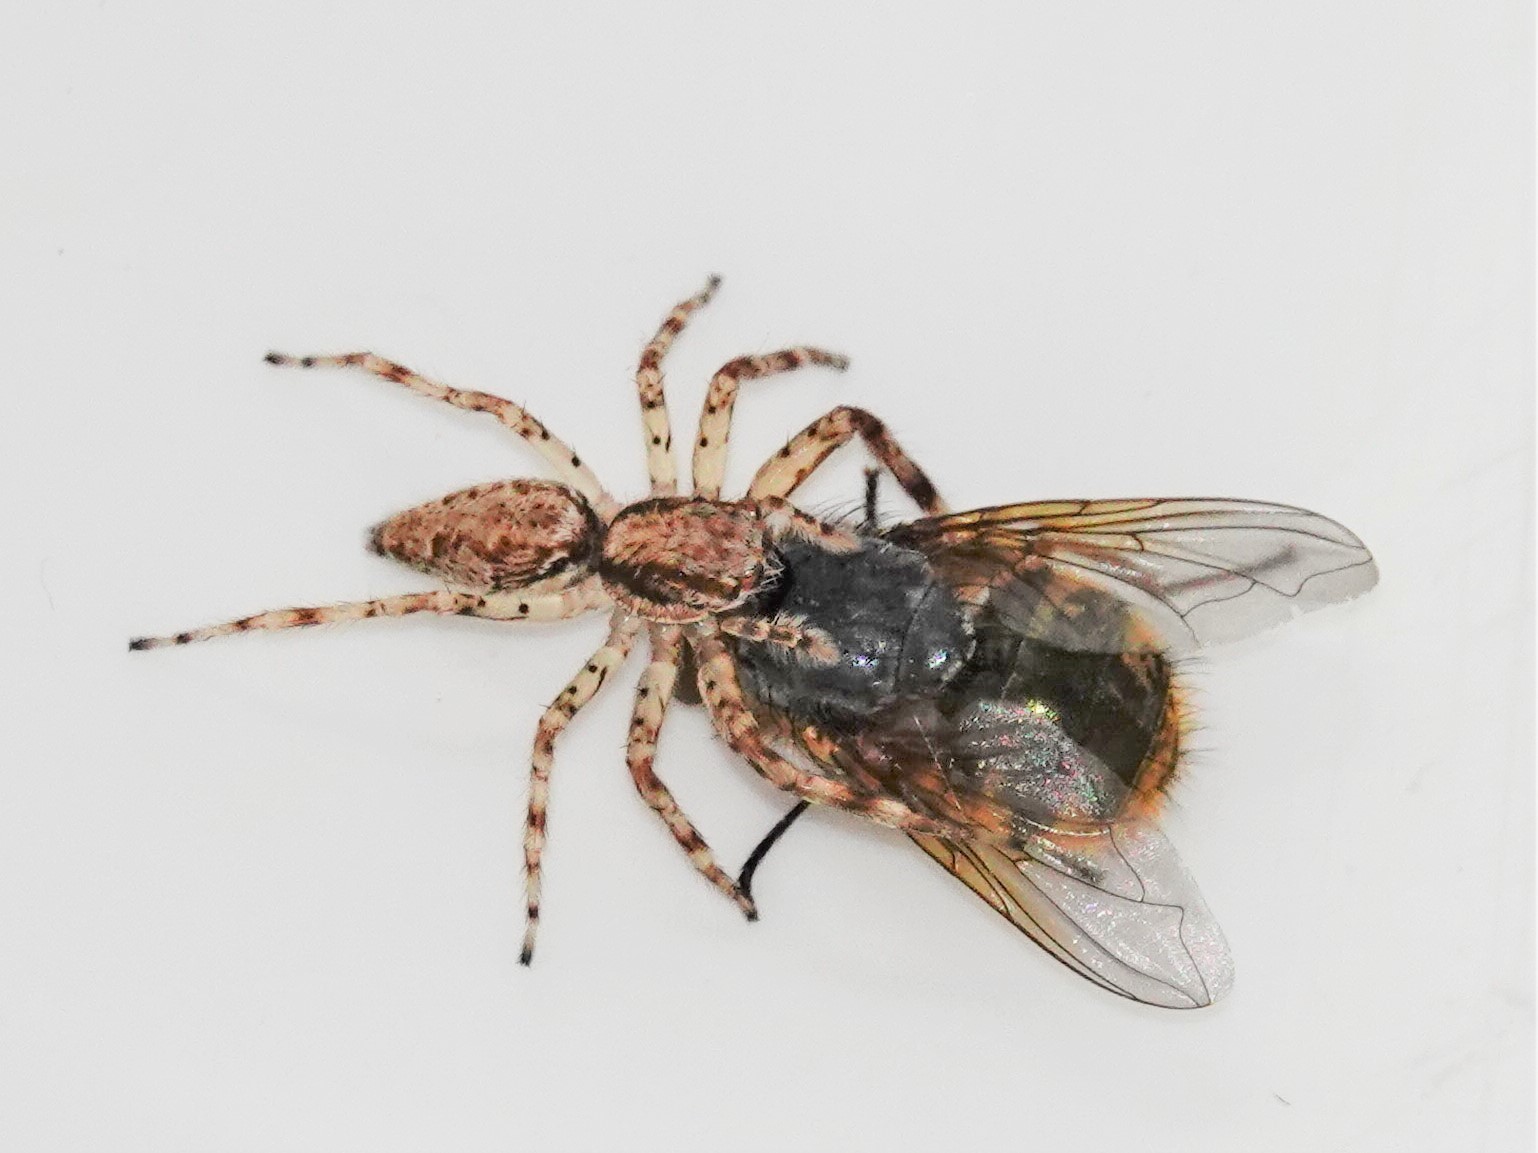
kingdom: Animalia
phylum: Arthropoda
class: Arachnida
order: Araneae
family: Salticidae
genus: Helpis
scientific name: Helpis minitabunda
